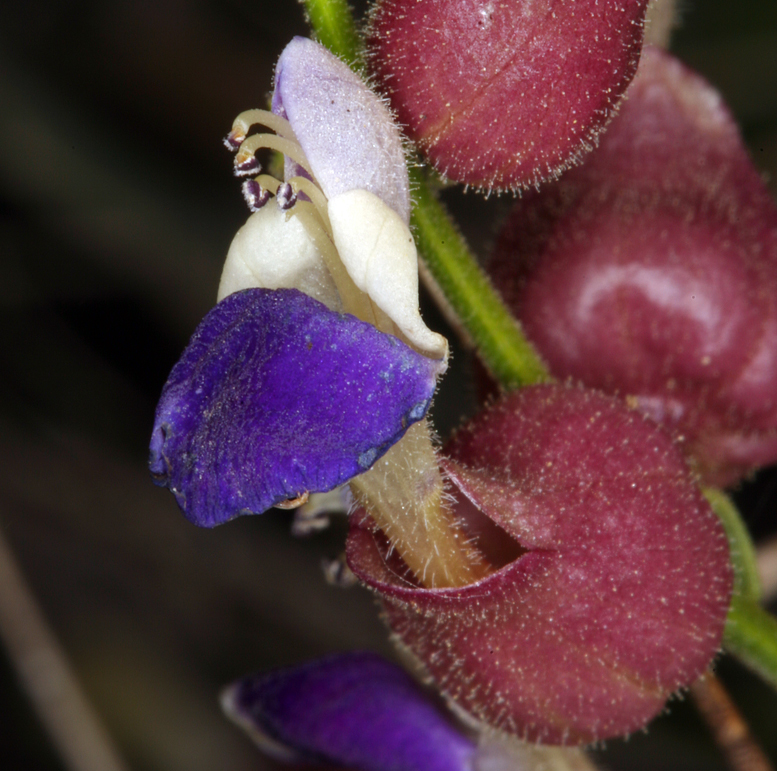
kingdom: Plantae
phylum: Tracheophyta
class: Magnoliopsida
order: Lamiales
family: Lamiaceae
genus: Scutellaria
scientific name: Scutellaria mexicana
